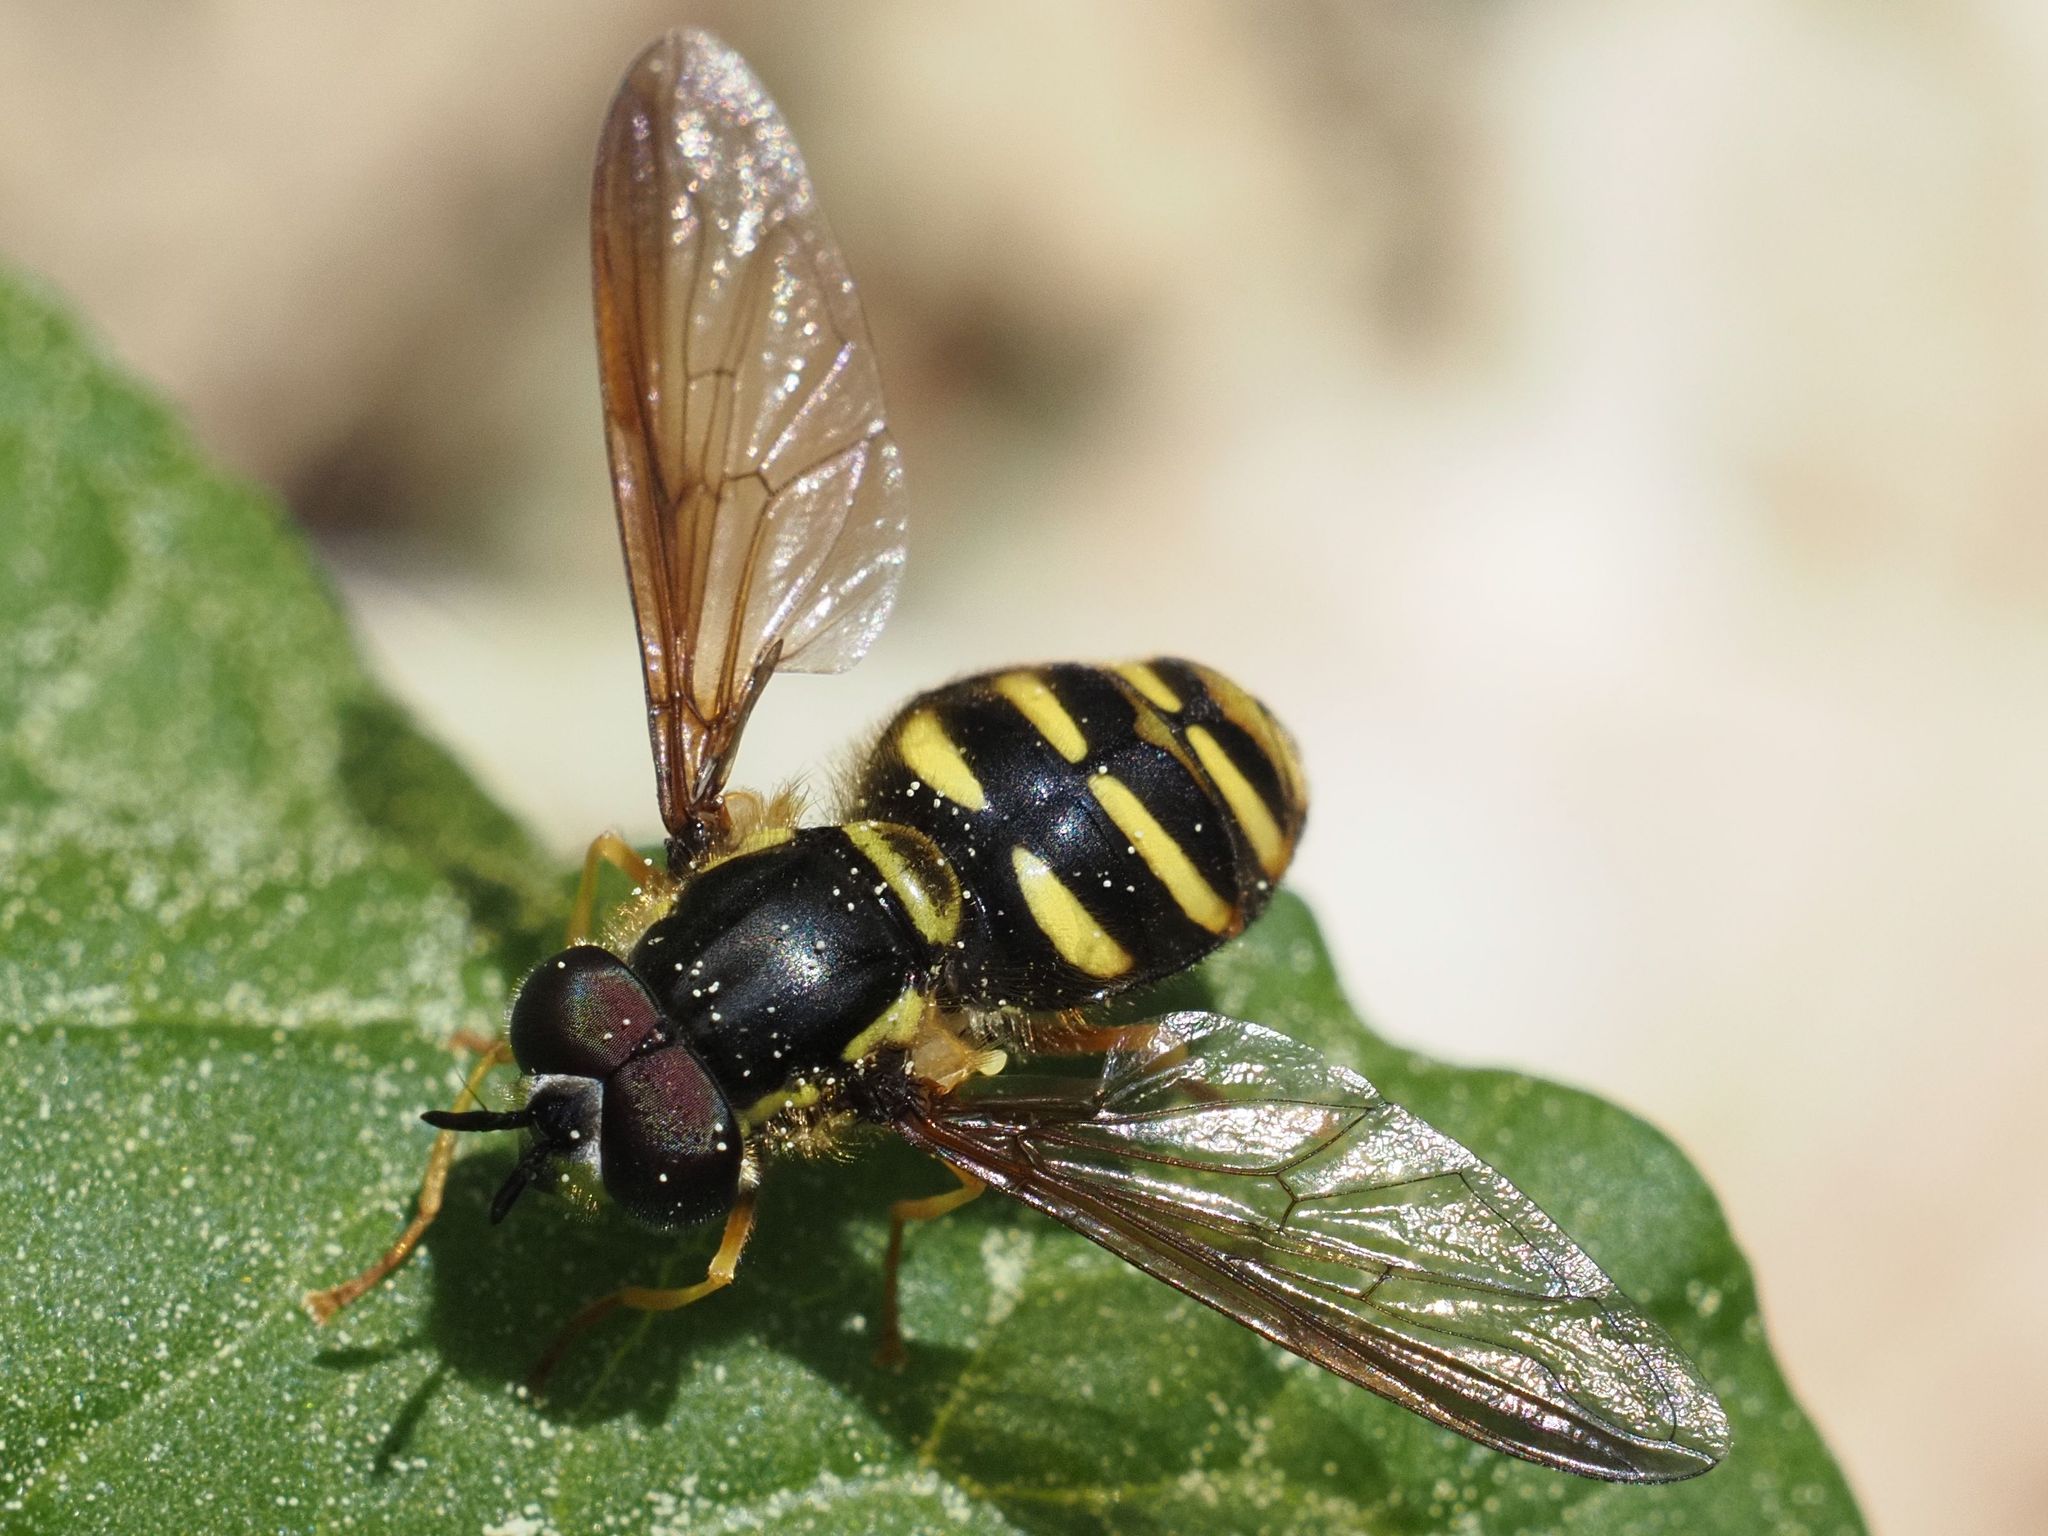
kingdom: Animalia
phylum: Arthropoda
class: Insecta
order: Diptera
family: Syrphidae
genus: Chrysotoxum
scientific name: Chrysotoxum intermedium
